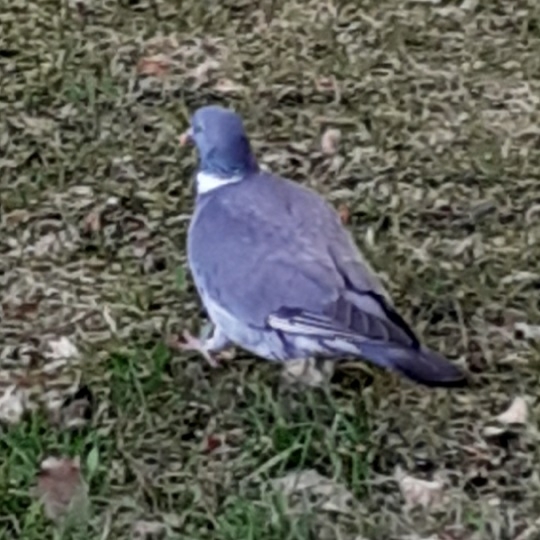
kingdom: Animalia
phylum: Chordata
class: Aves
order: Columbiformes
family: Columbidae
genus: Columba
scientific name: Columba palumbus
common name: Common wood pigeon
